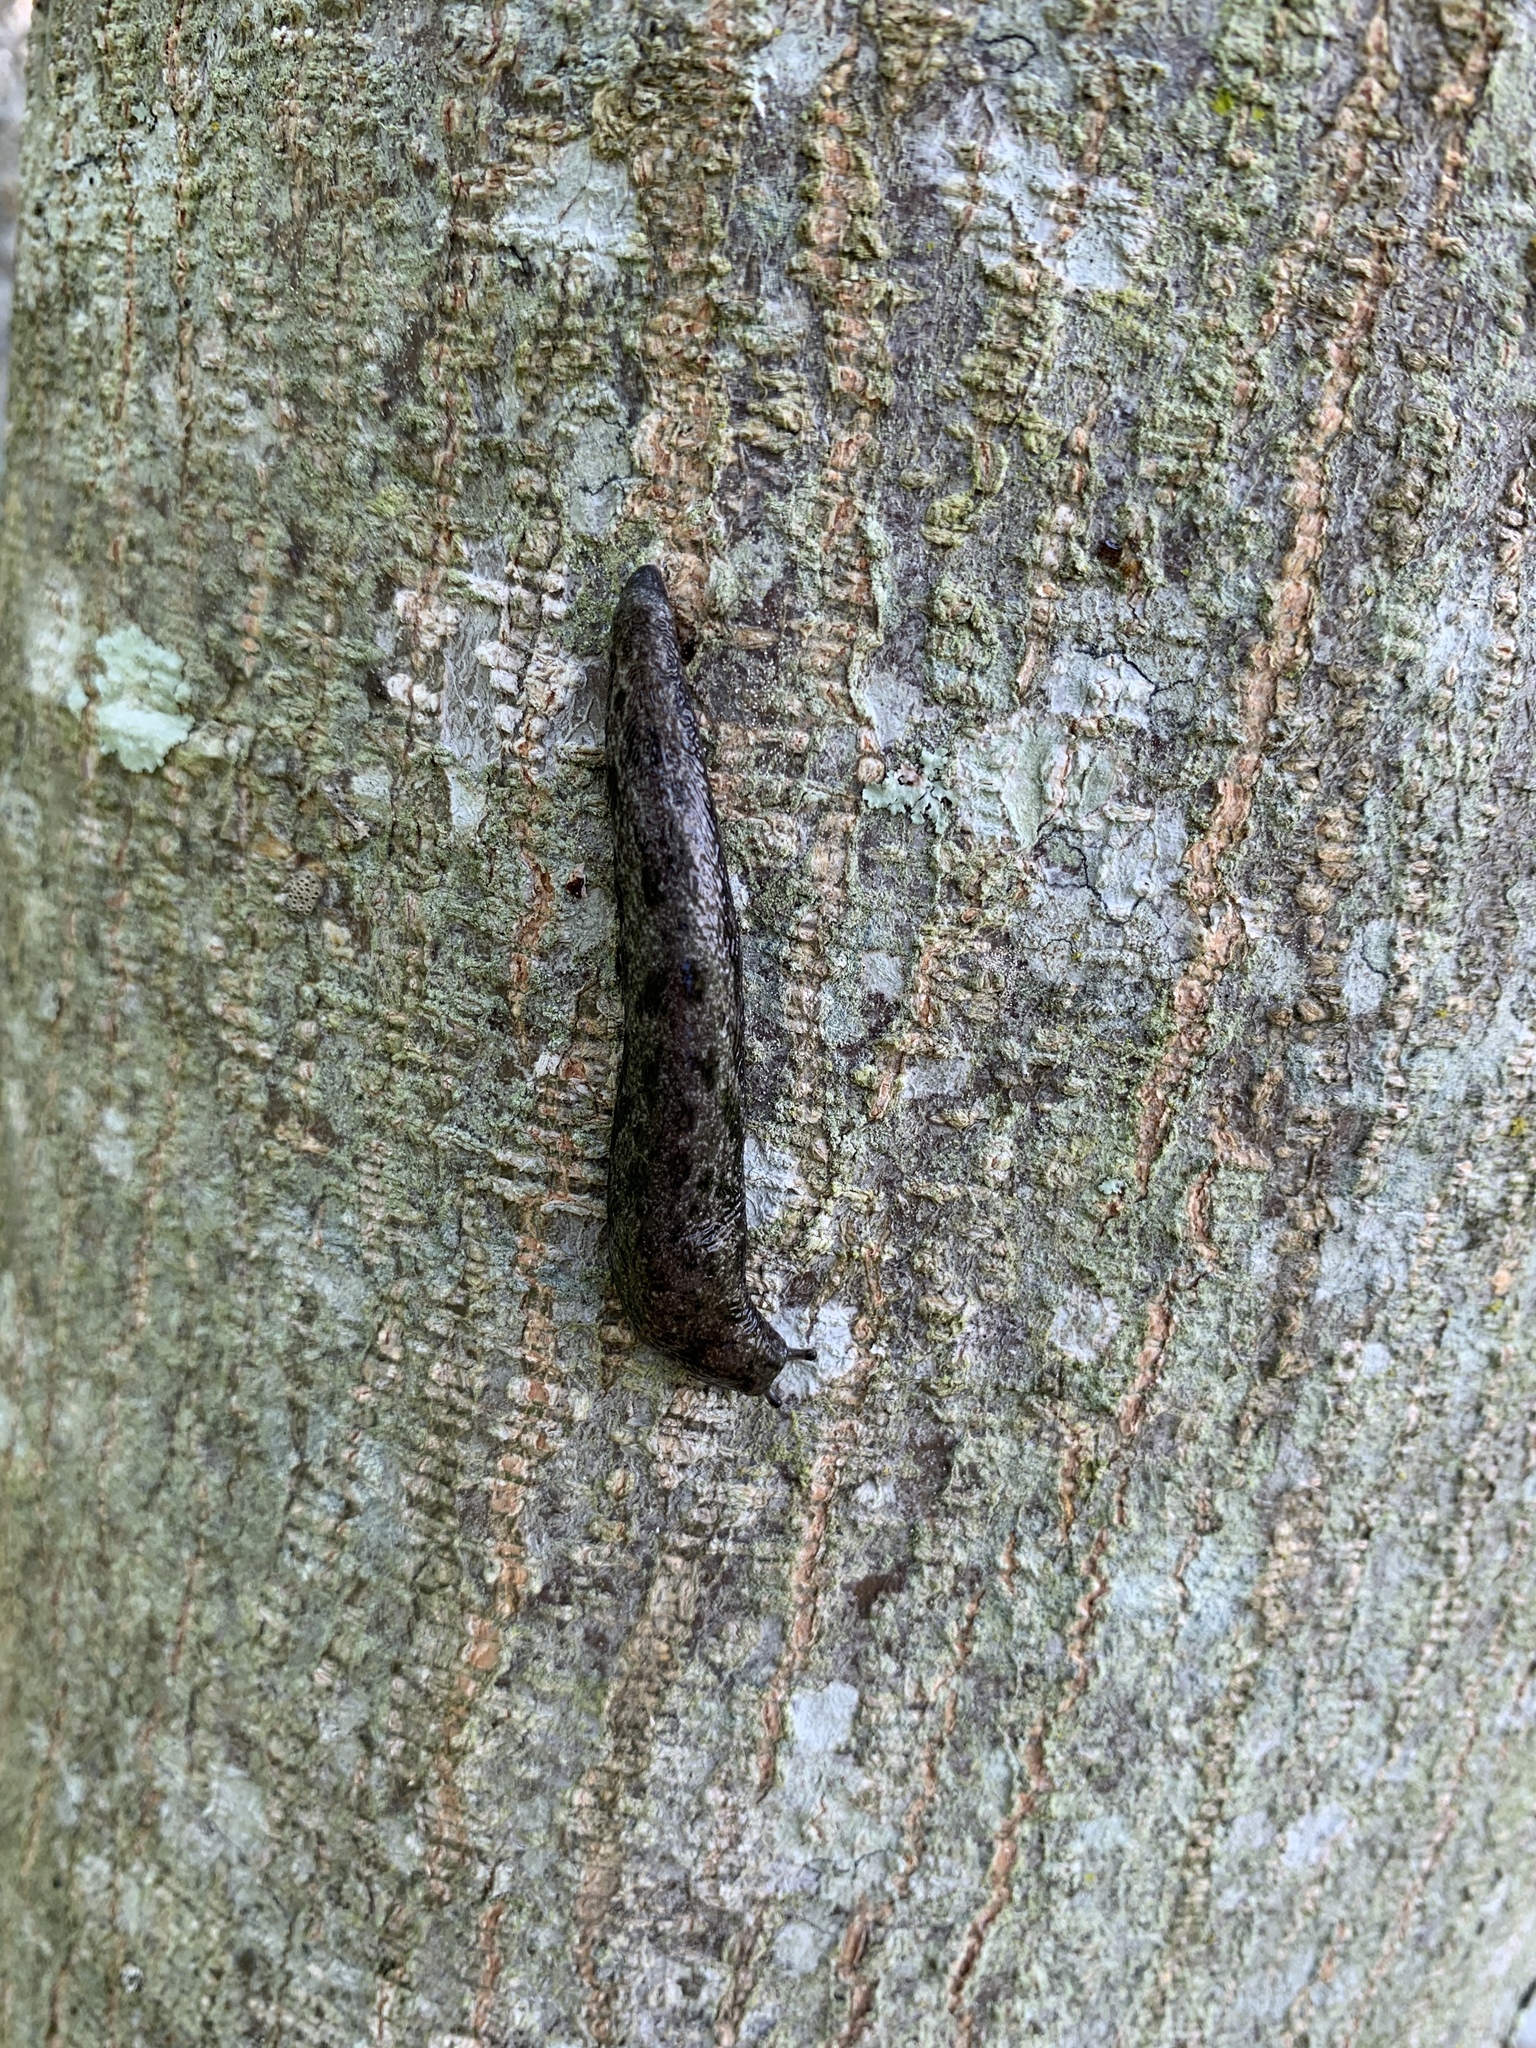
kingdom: Animalia
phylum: Mollusca
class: Gastropoda
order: Stylommatophora
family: Philomycidae
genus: Megapallifera
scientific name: Megapallifera mutabilis
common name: Changeable mantleslug
